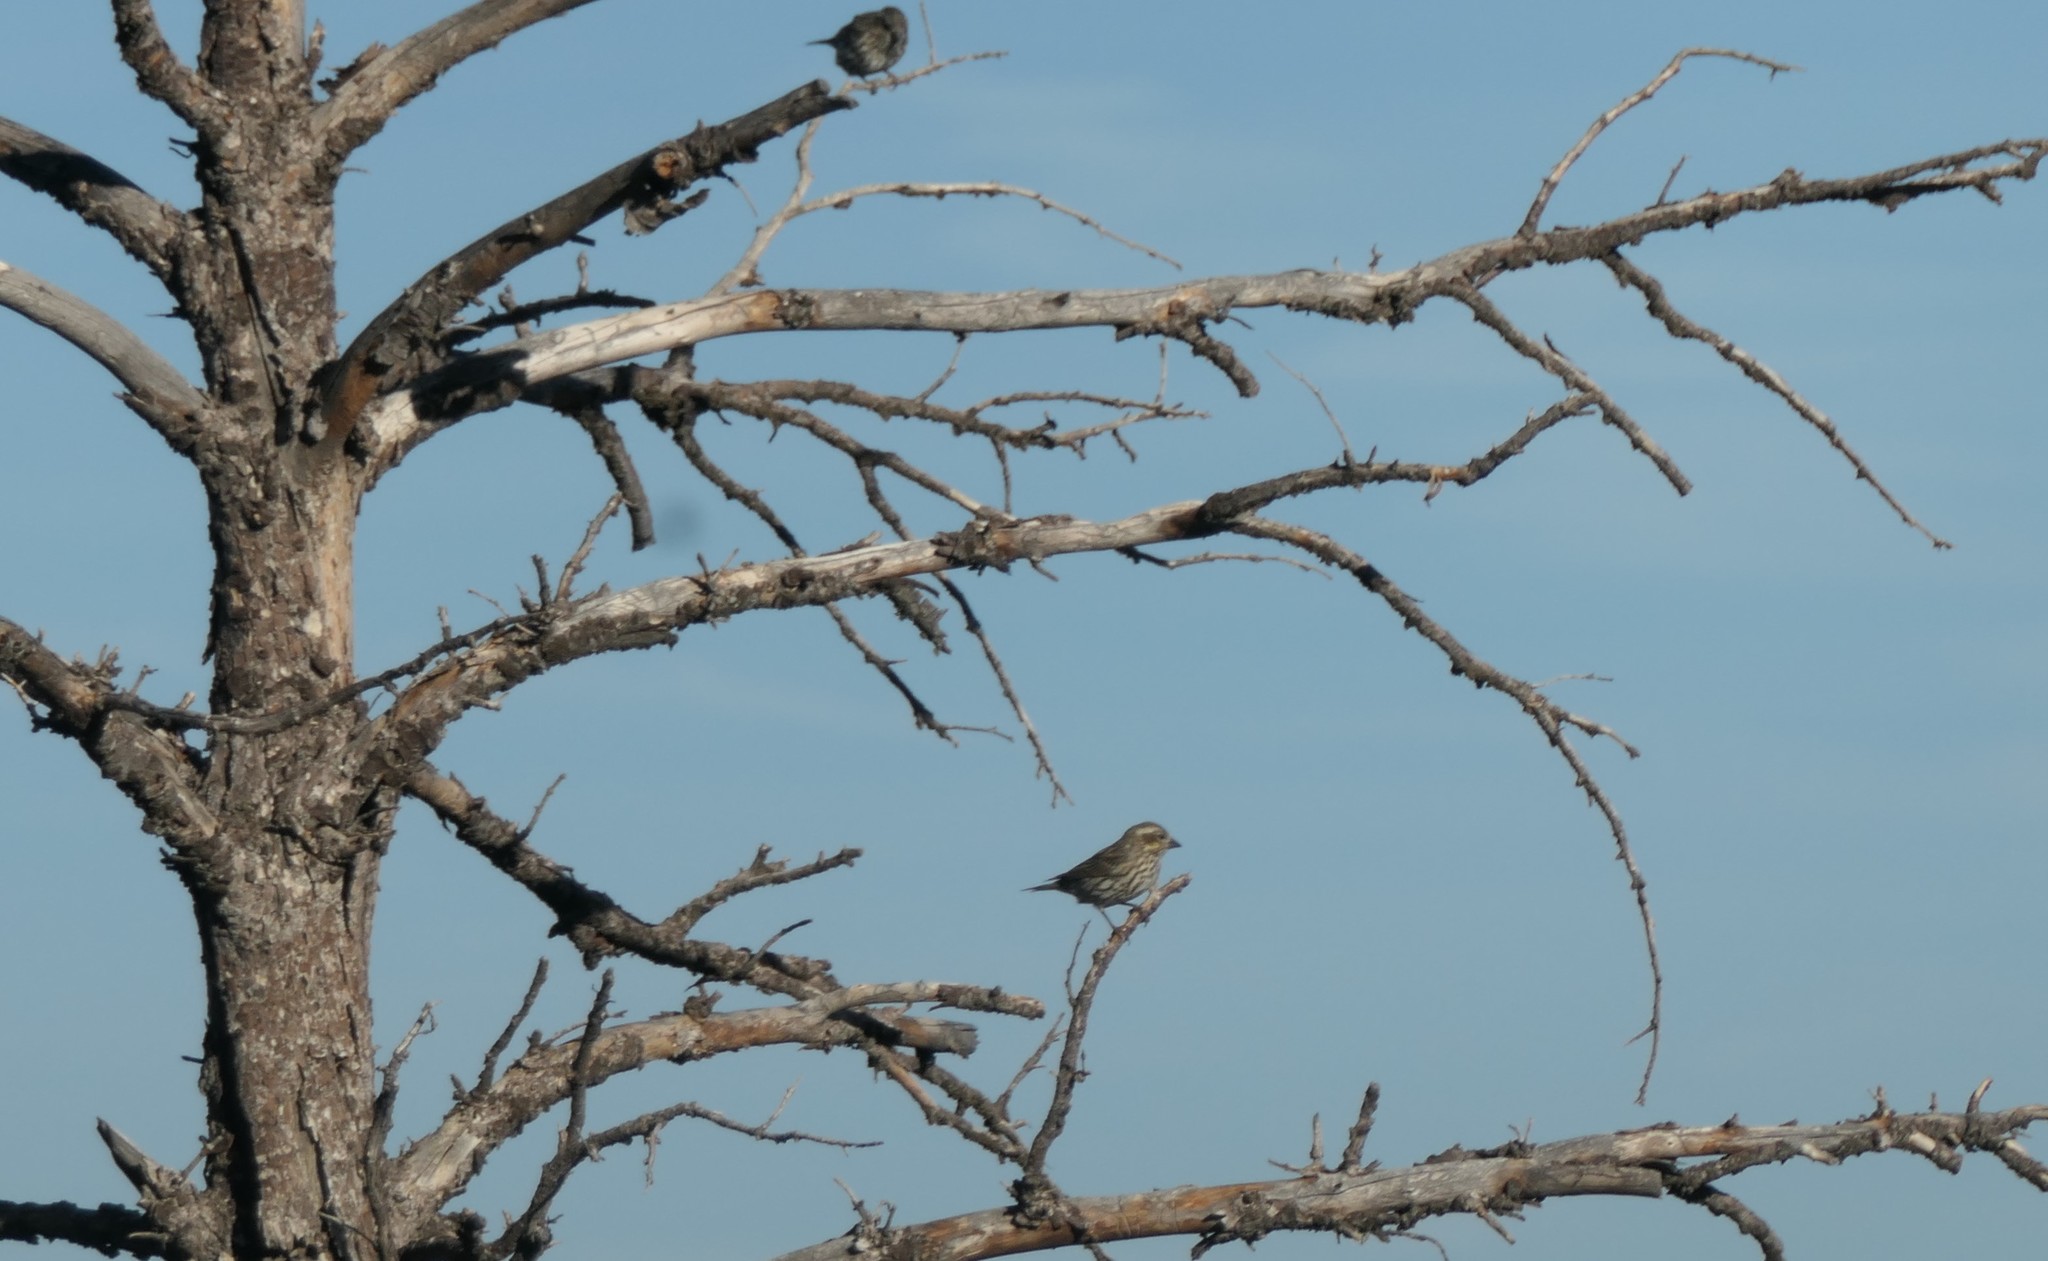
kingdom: Animalia
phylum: Chordata
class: Aves
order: Passeriformes
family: Fringillidae
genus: Haemorhous
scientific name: Haemorhous cassinii
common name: Cassin's finch
